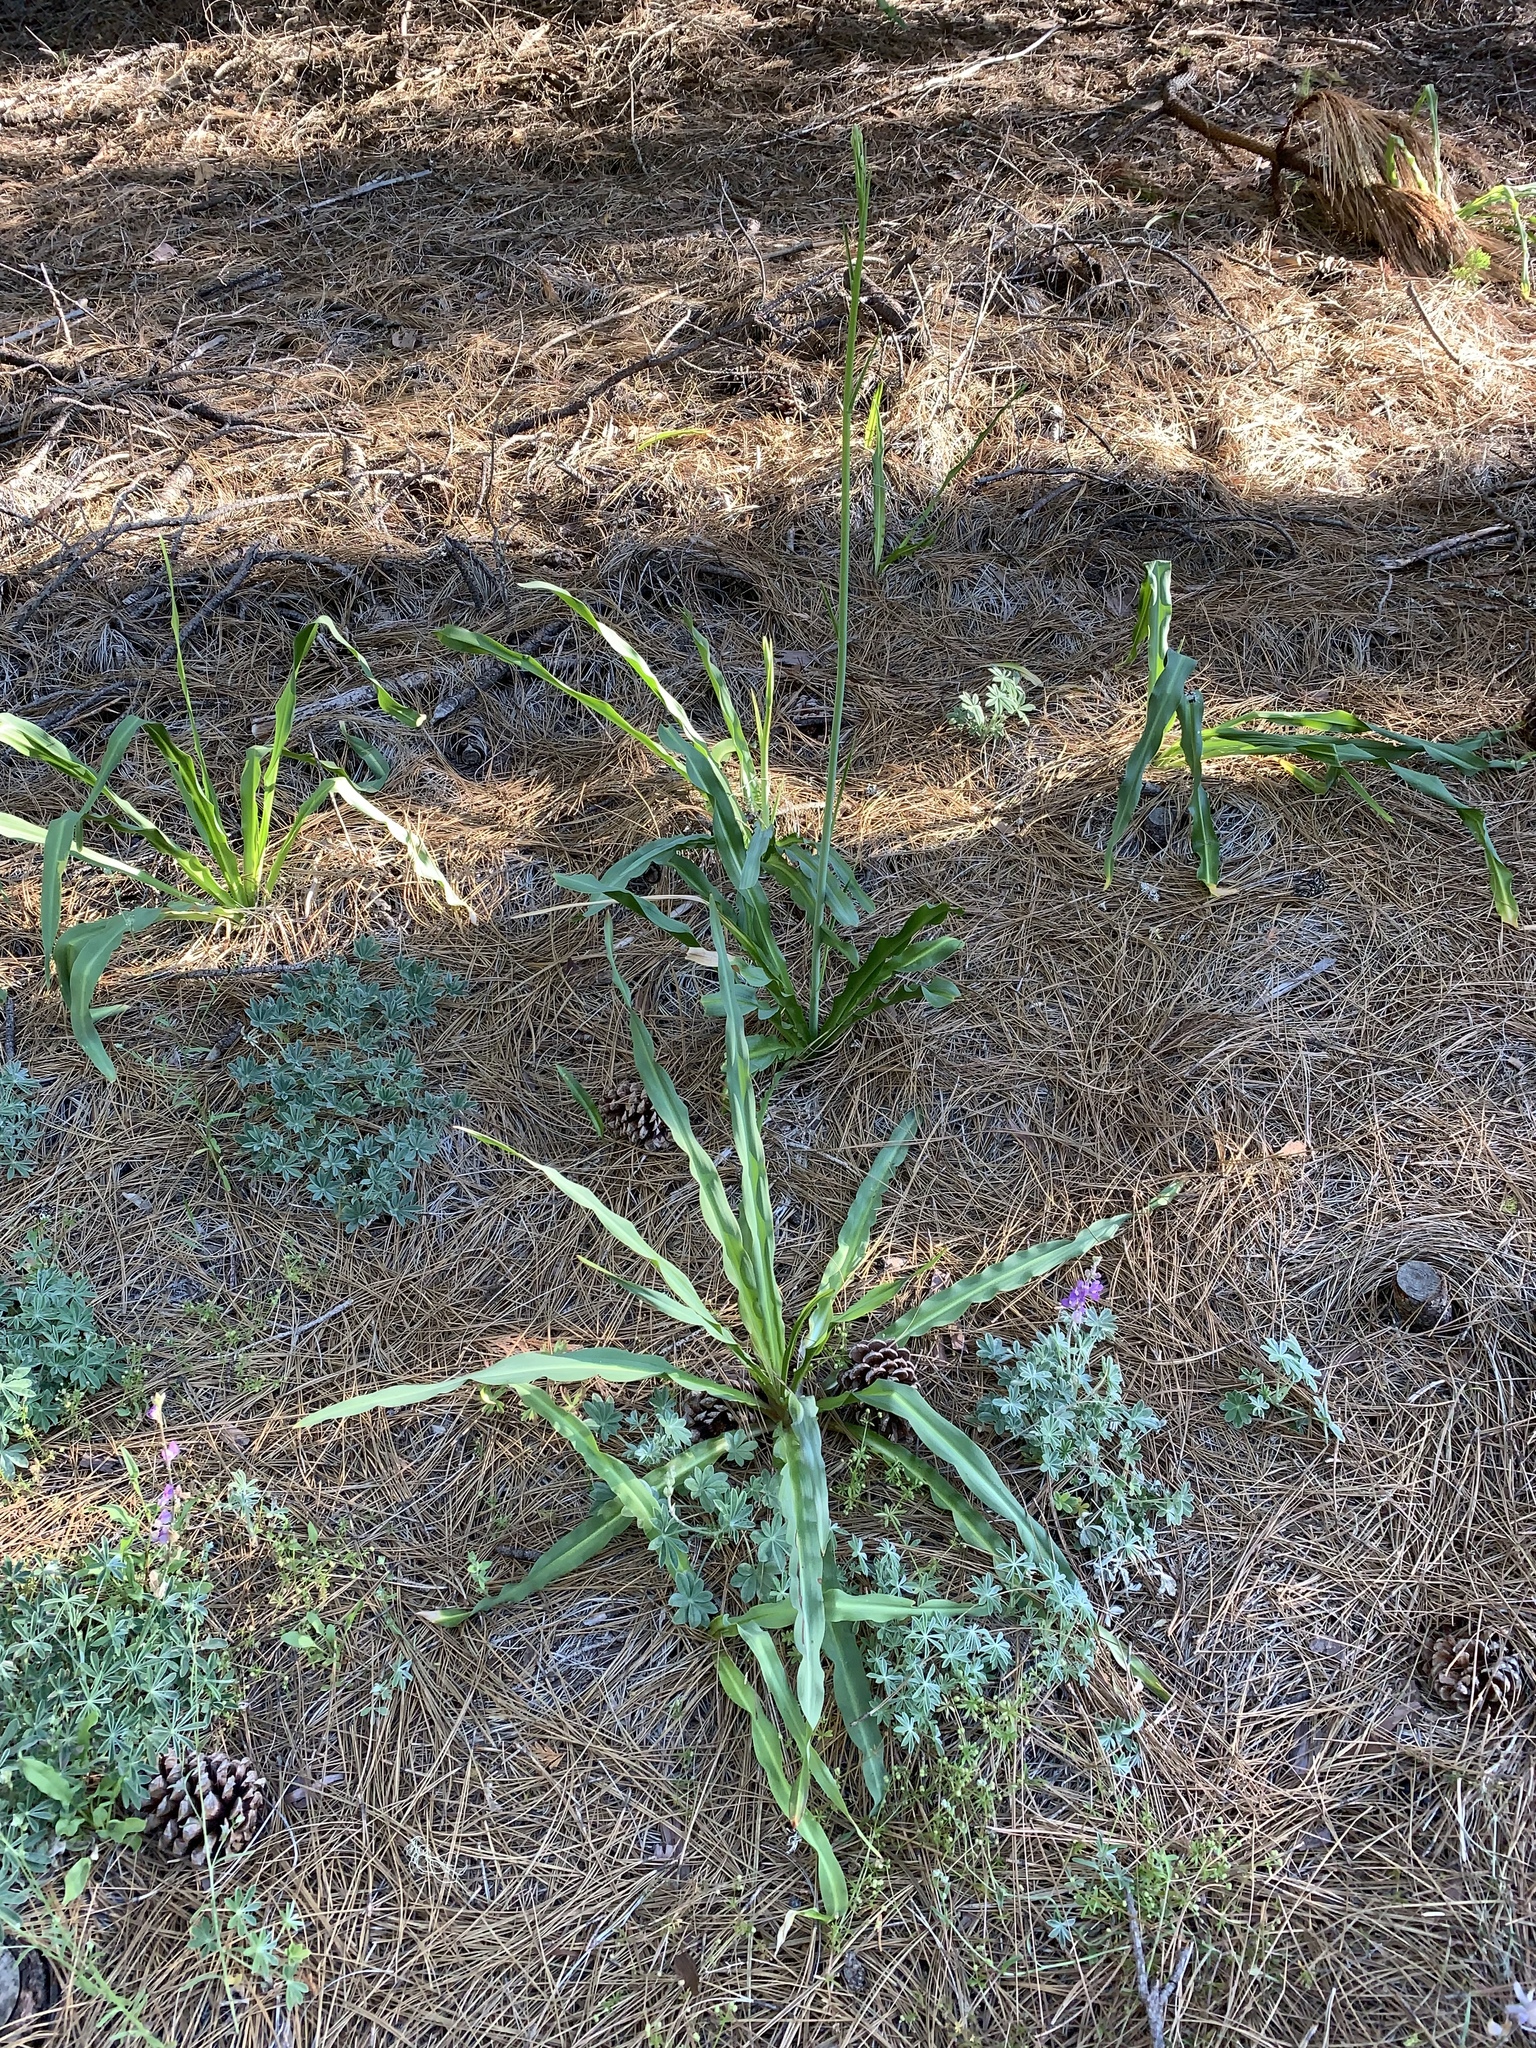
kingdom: Plantae
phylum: Tracheophyta
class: Liliopsida
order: Asparagales
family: Asparagaceae
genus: Chlorogalum
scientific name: Chlorogalum pomeridianum
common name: Amole
